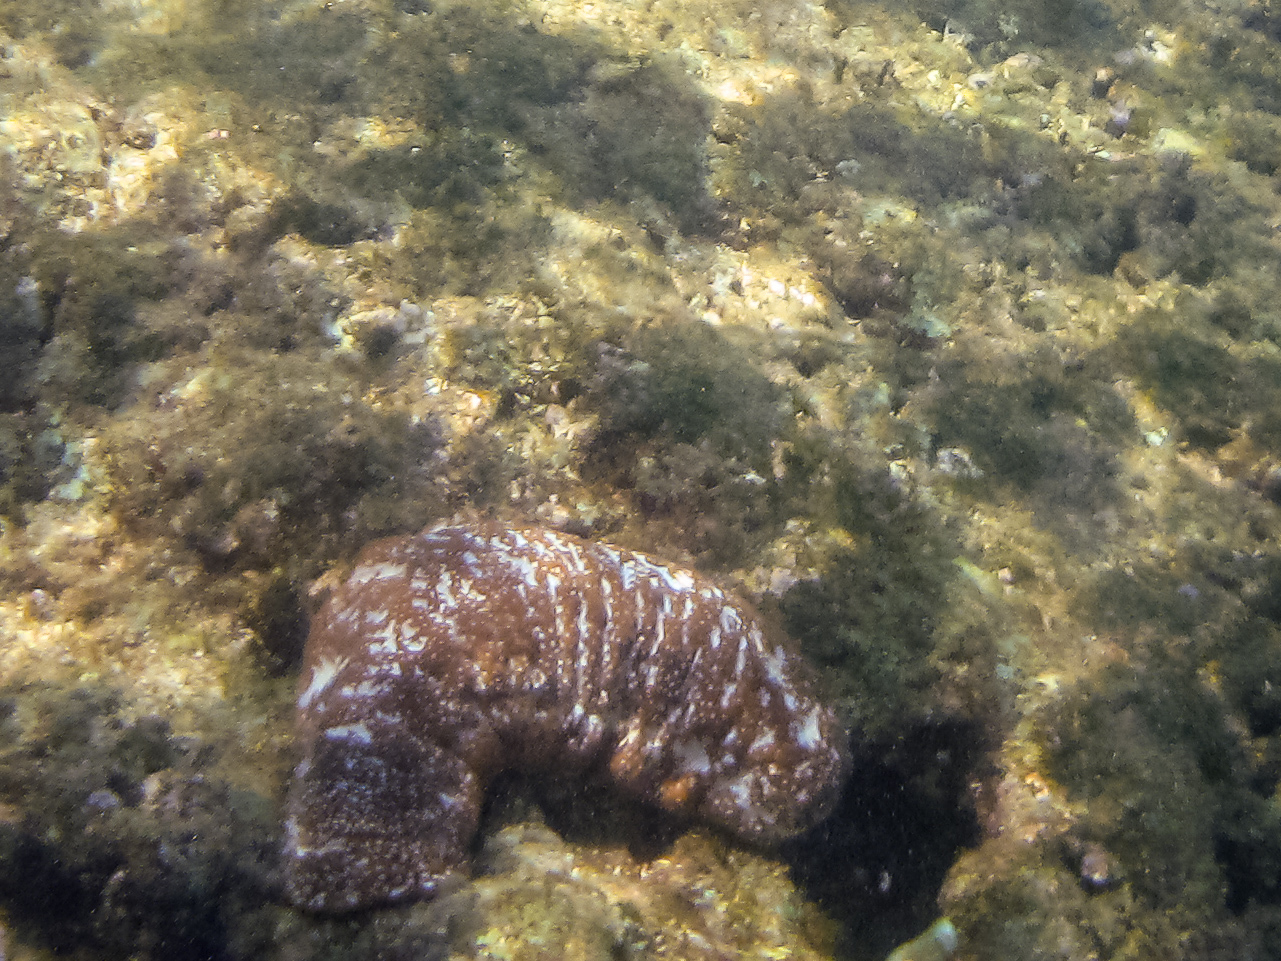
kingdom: Animalia
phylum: Echinodermata
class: Holothuroidea
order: Holothuriida
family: Holothuriidae
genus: Actinopyga
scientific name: Actinopyga varians
